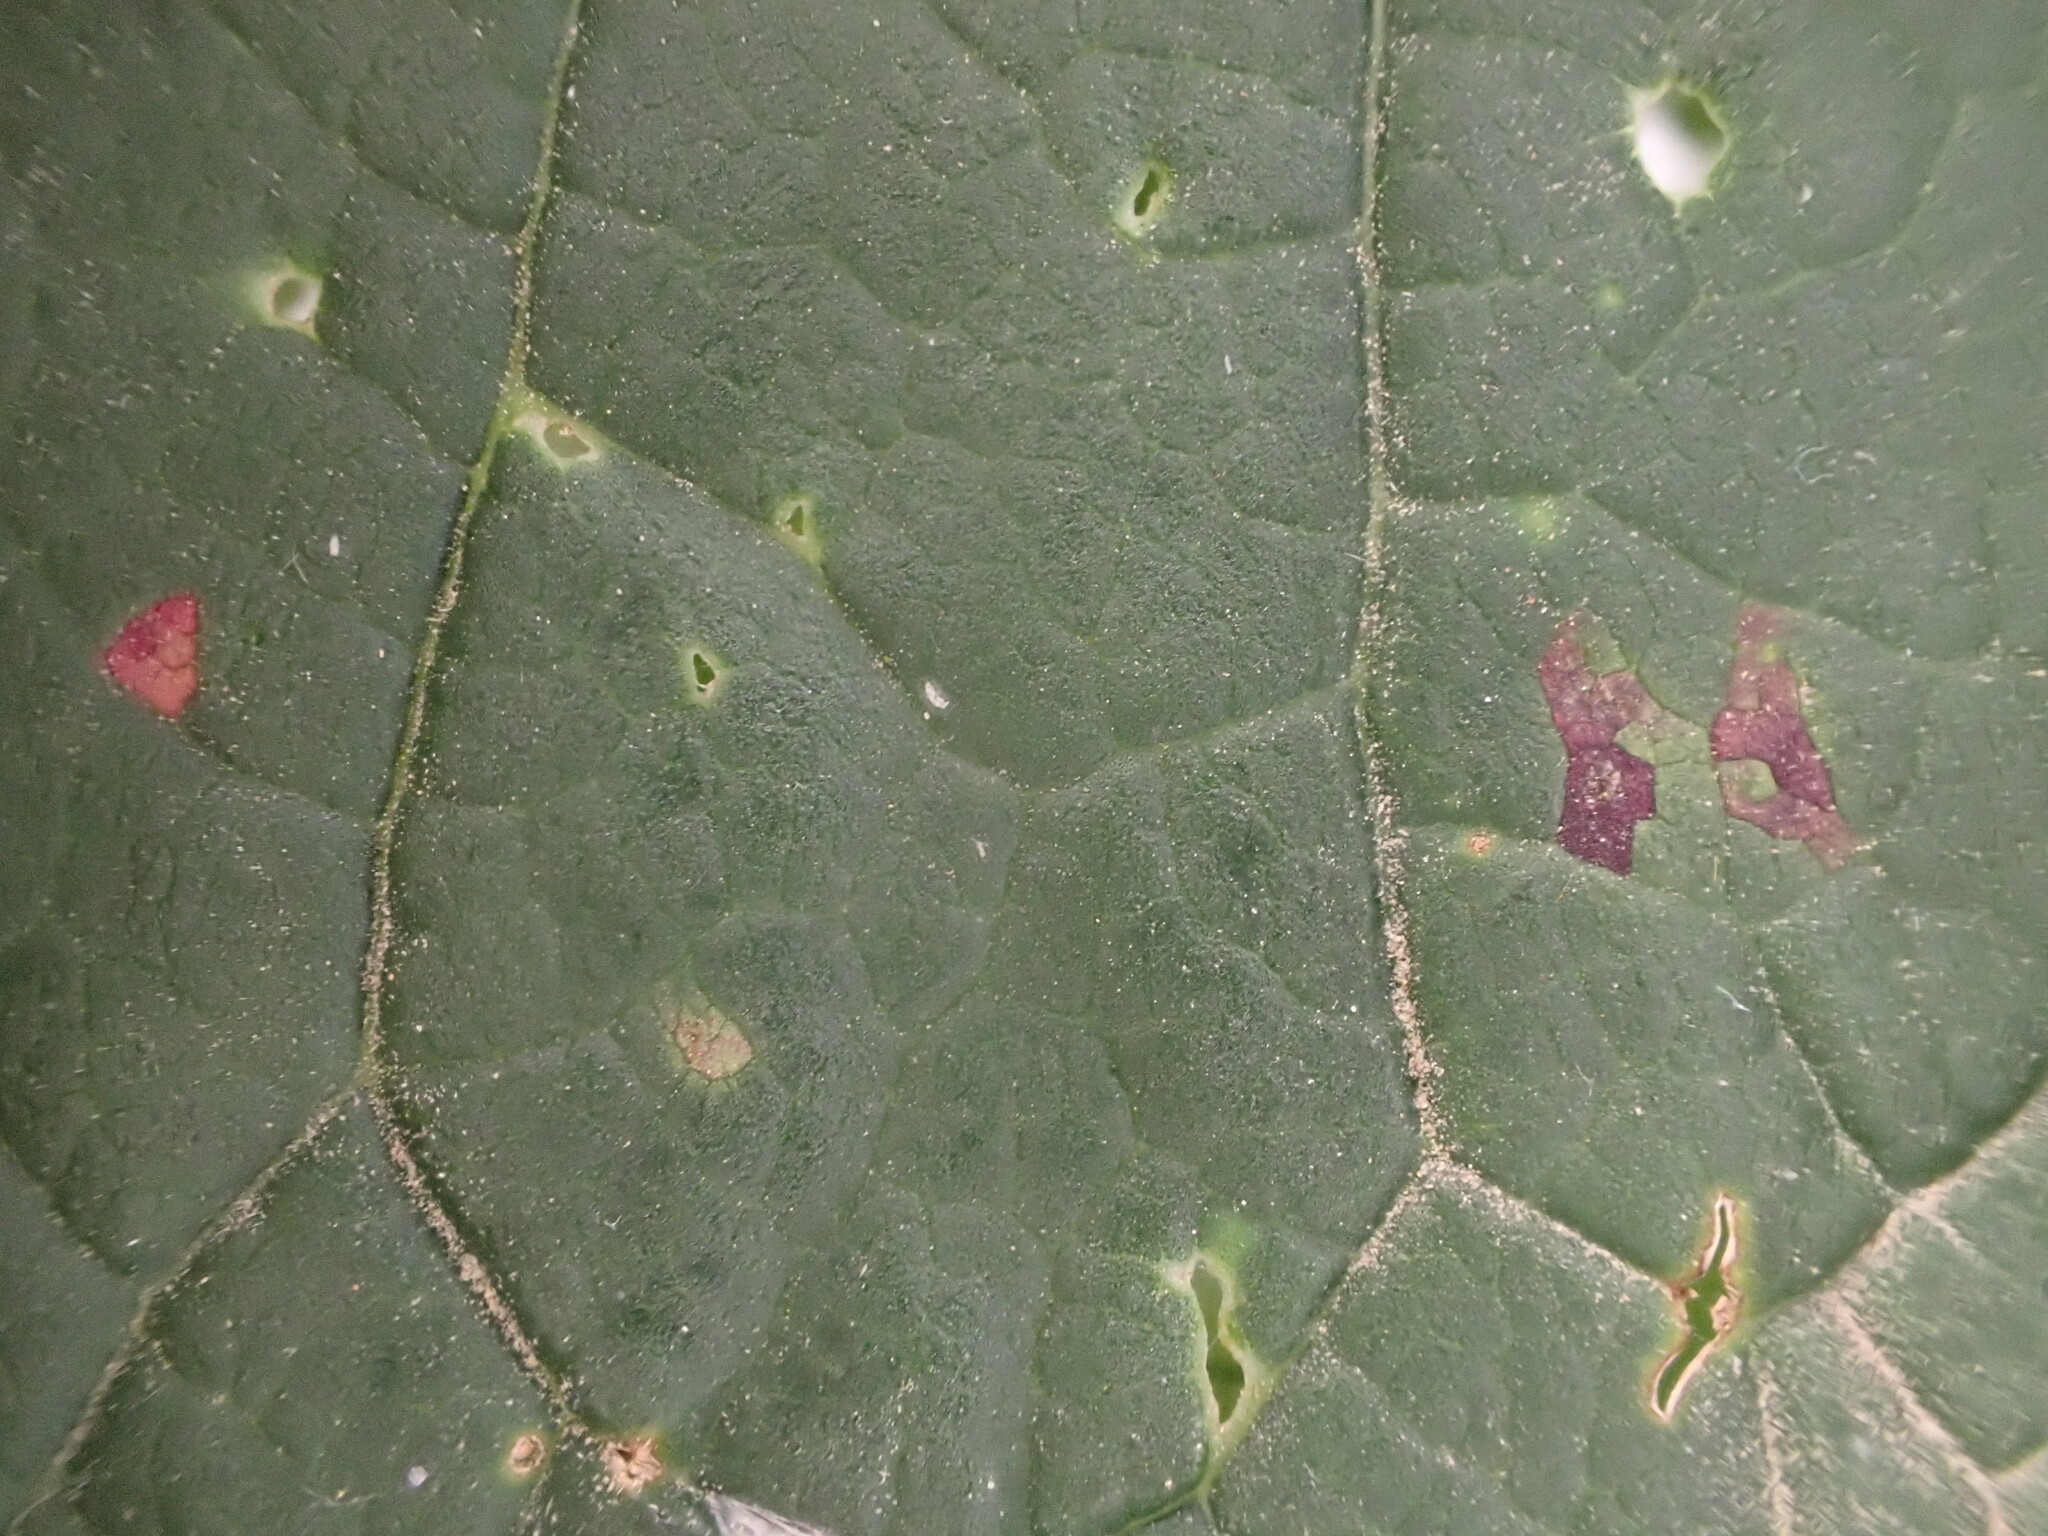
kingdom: Fungi
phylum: Basidiomycota
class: Pucciniomycetes
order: Pucciniales
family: Pucciniastraceae
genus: Thekopsora
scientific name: Thekopsora areolata
